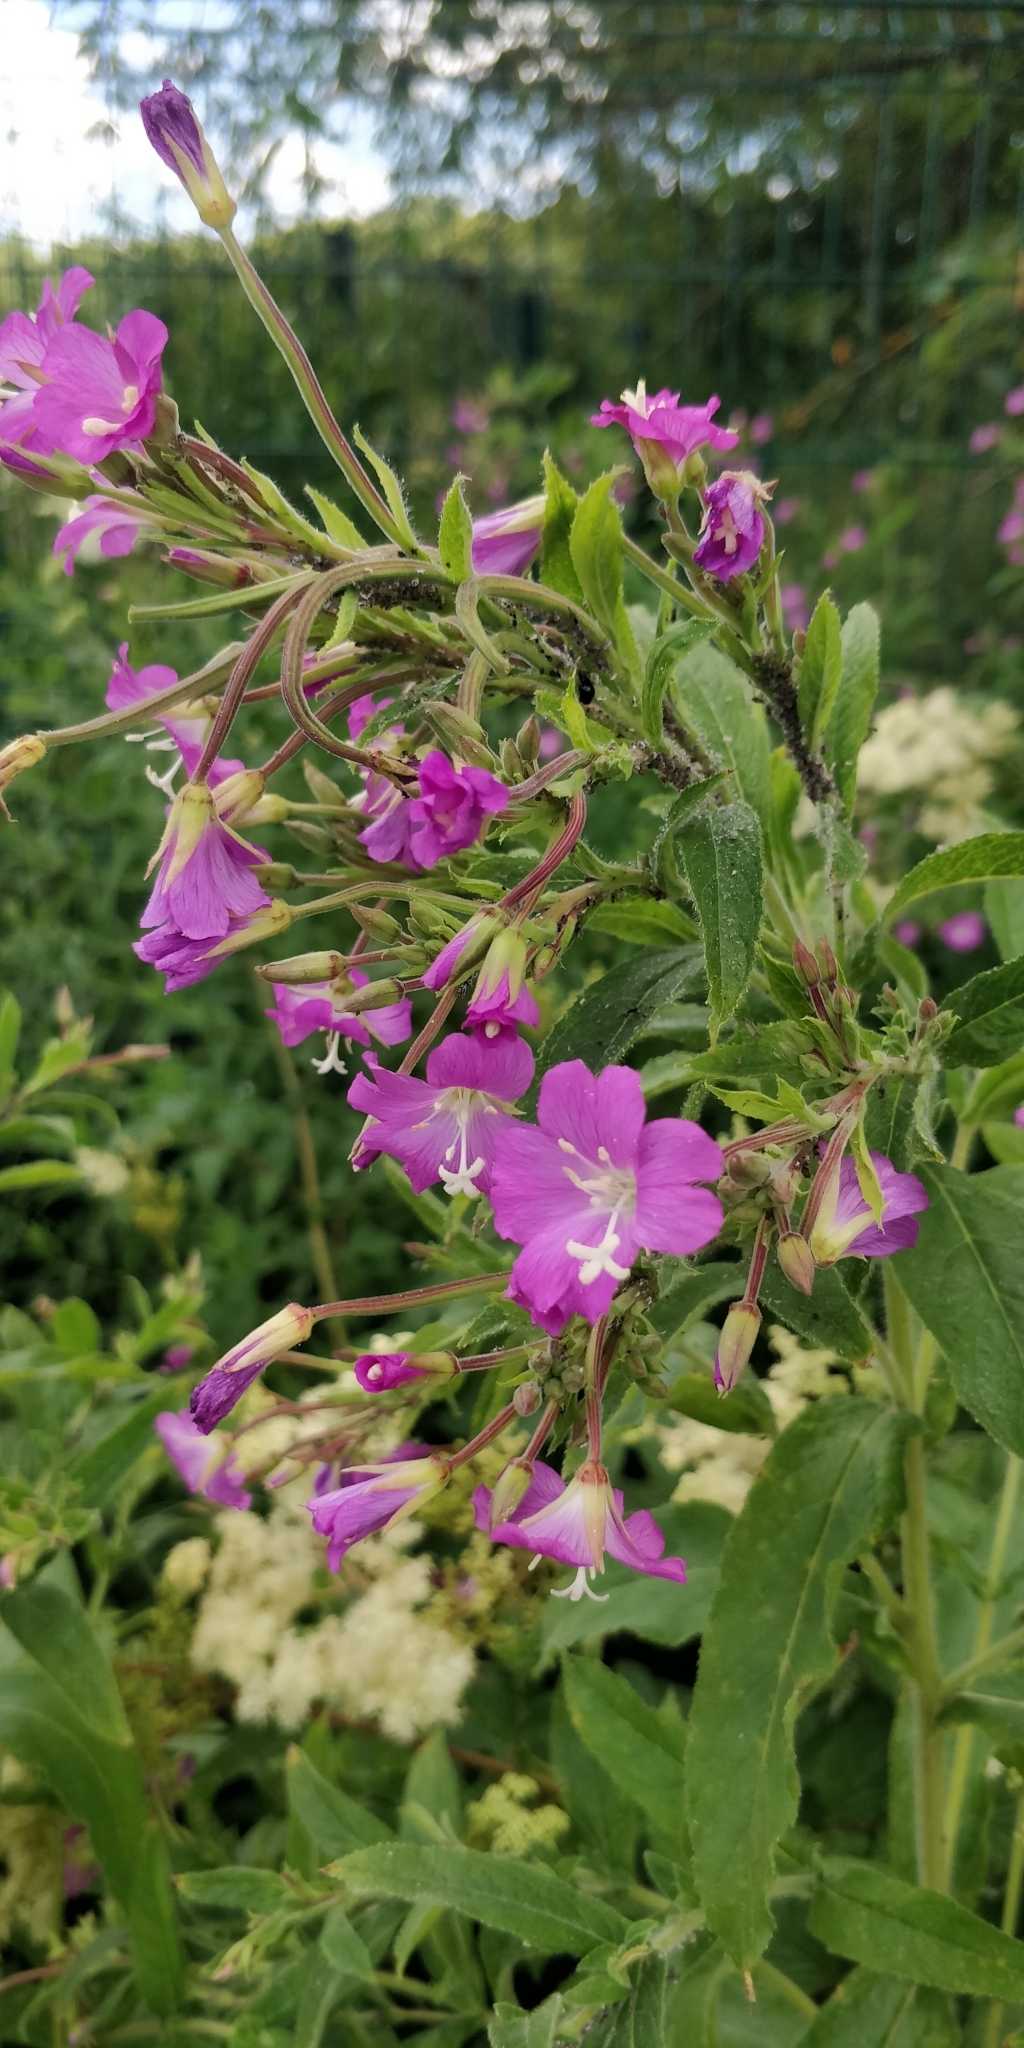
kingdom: Plantae
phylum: Tracheophyta
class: Magnoliopsida
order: Myrtales
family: Onagraceae
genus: Epilobium
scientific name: Epilobium hirsutum
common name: Great willowherb
